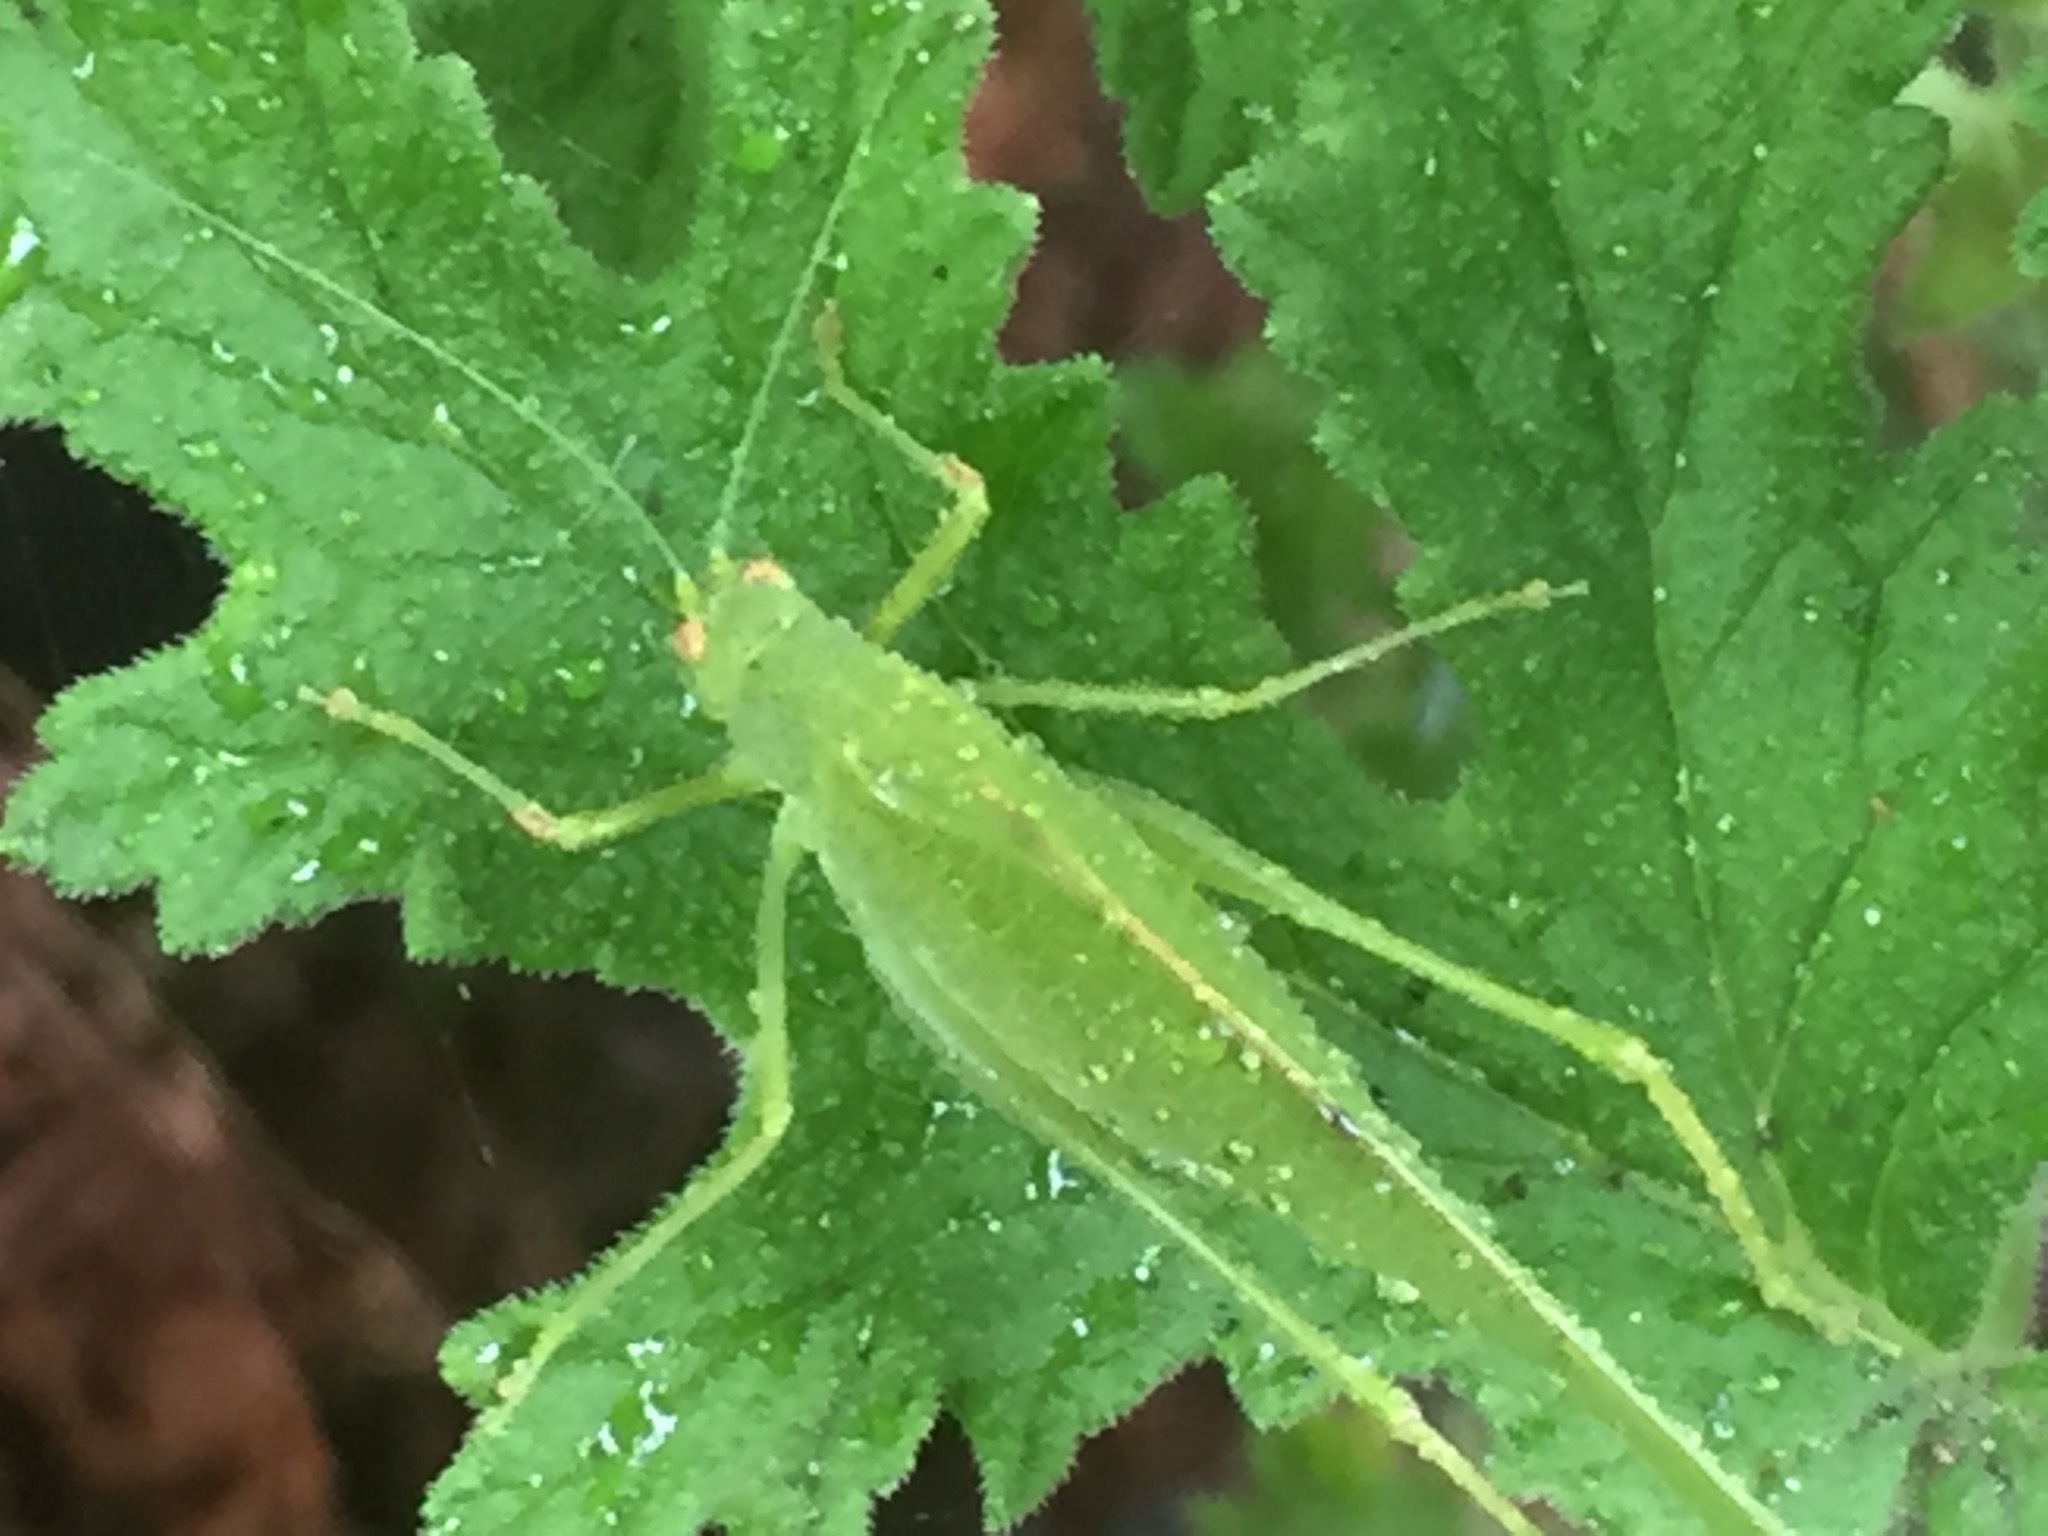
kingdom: Animalia
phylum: Arthropoda
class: Insecta
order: Orthoptera
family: Tettigoniidae
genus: Phaneroptera
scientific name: Phaneroptera nana
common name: Southern sickle bush-cricket
